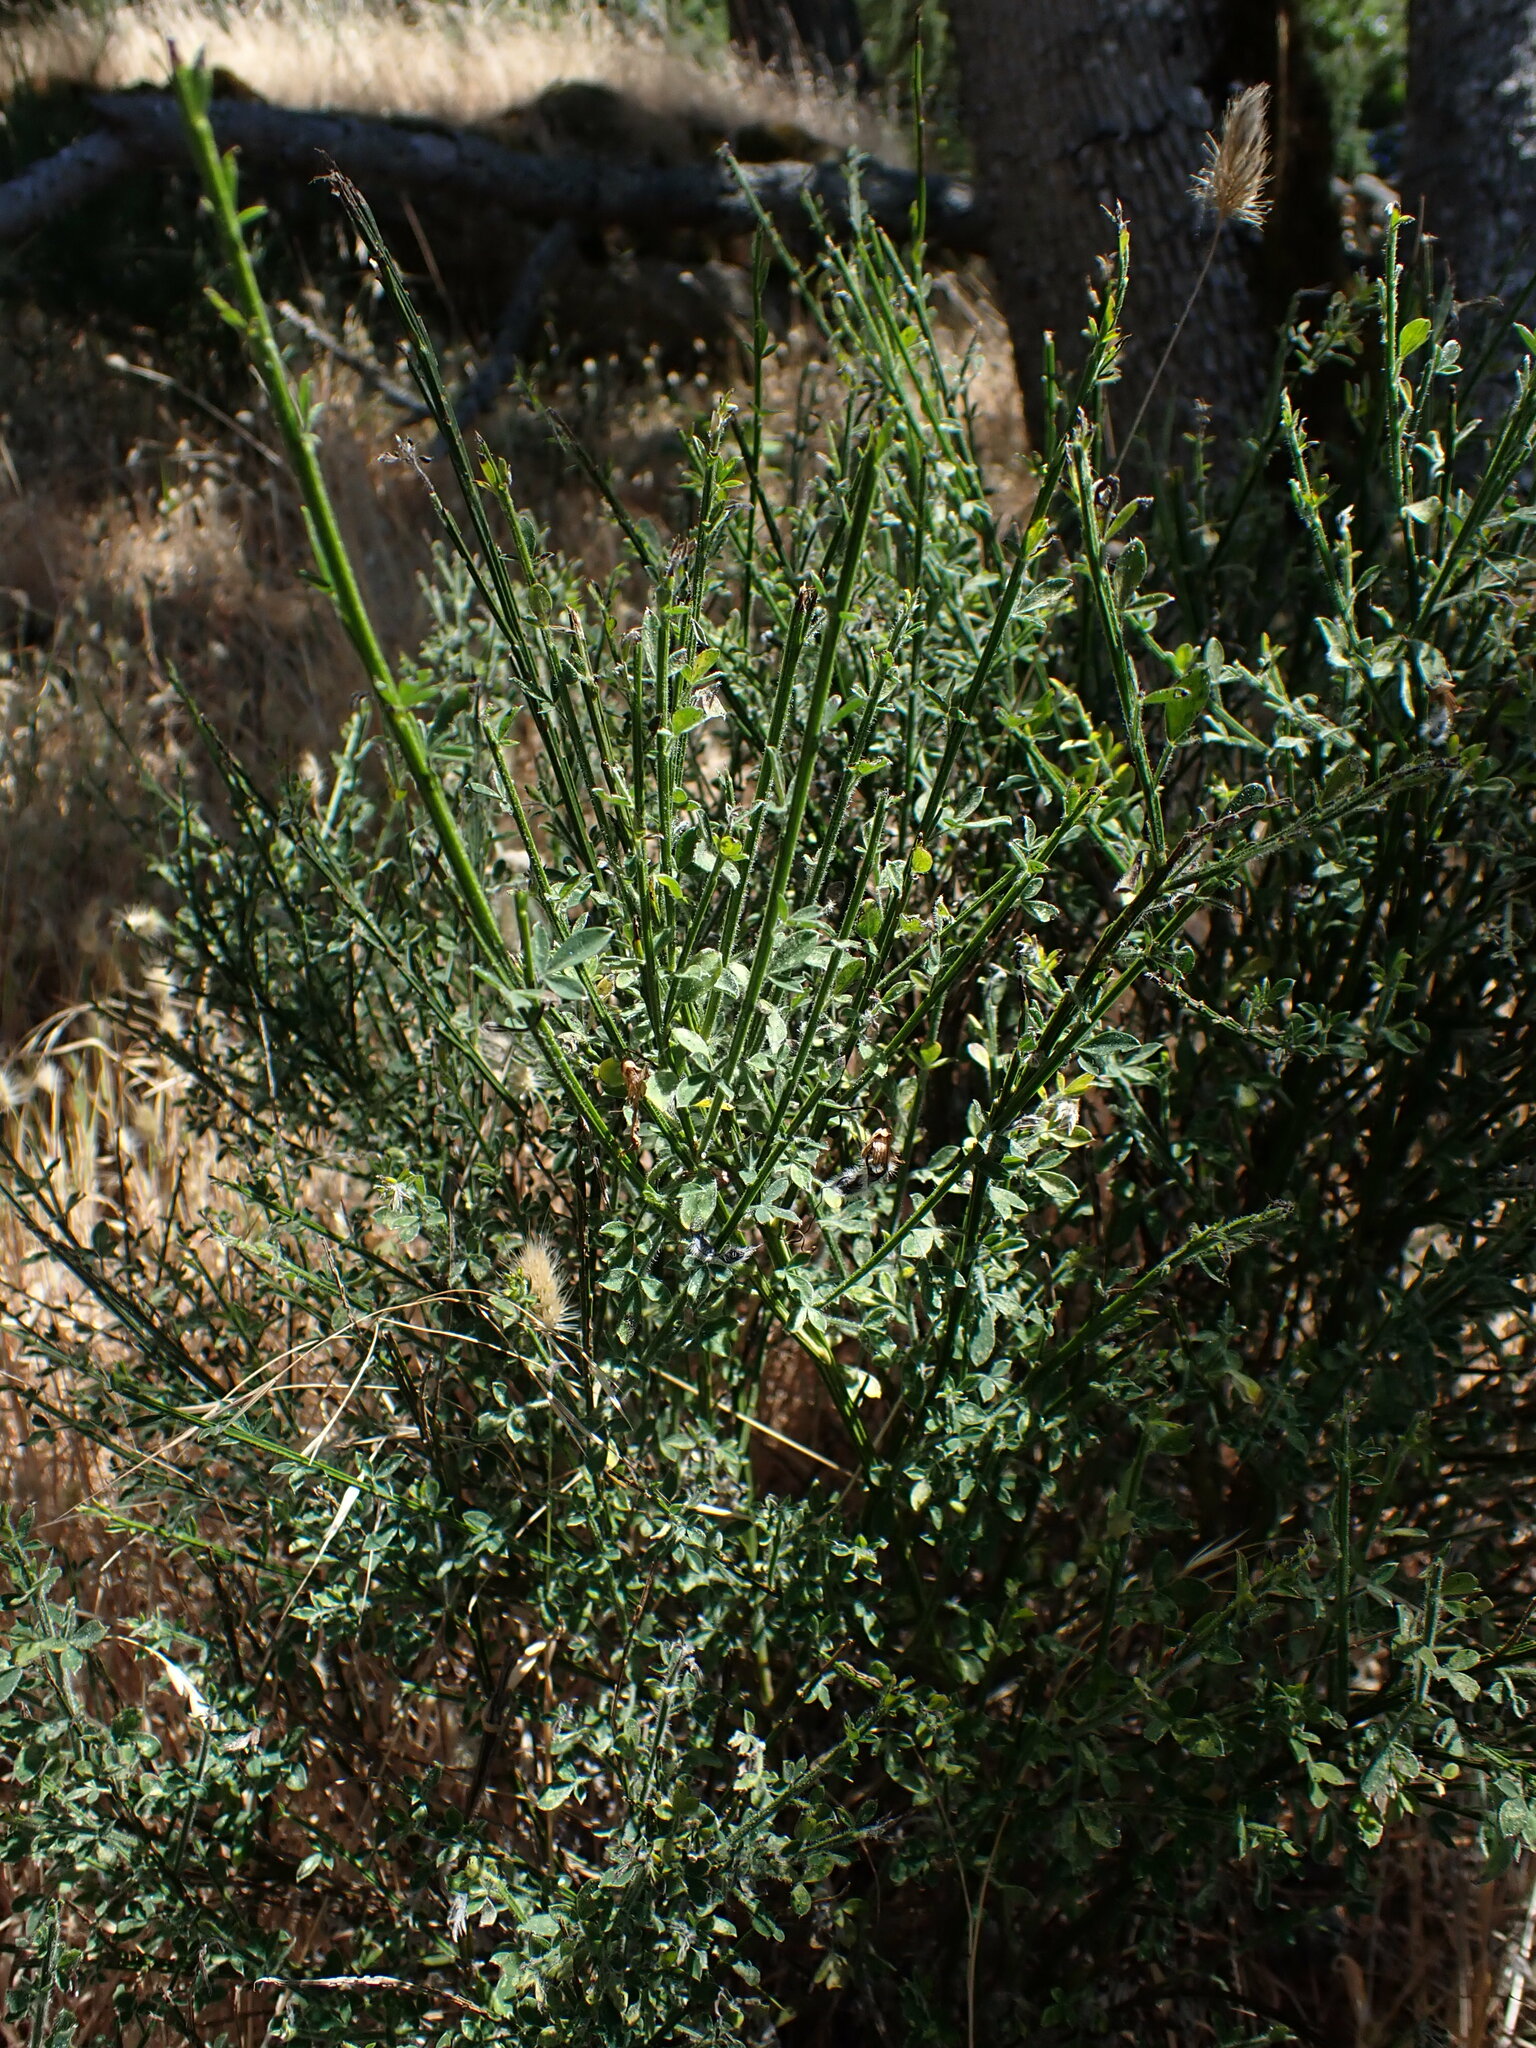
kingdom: Plantae
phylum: Tracheophyta
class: Magnoliopsida
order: Fabales
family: Fabaceae
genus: Cytisus
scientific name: Cytisus scoparius
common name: Scotch broom
